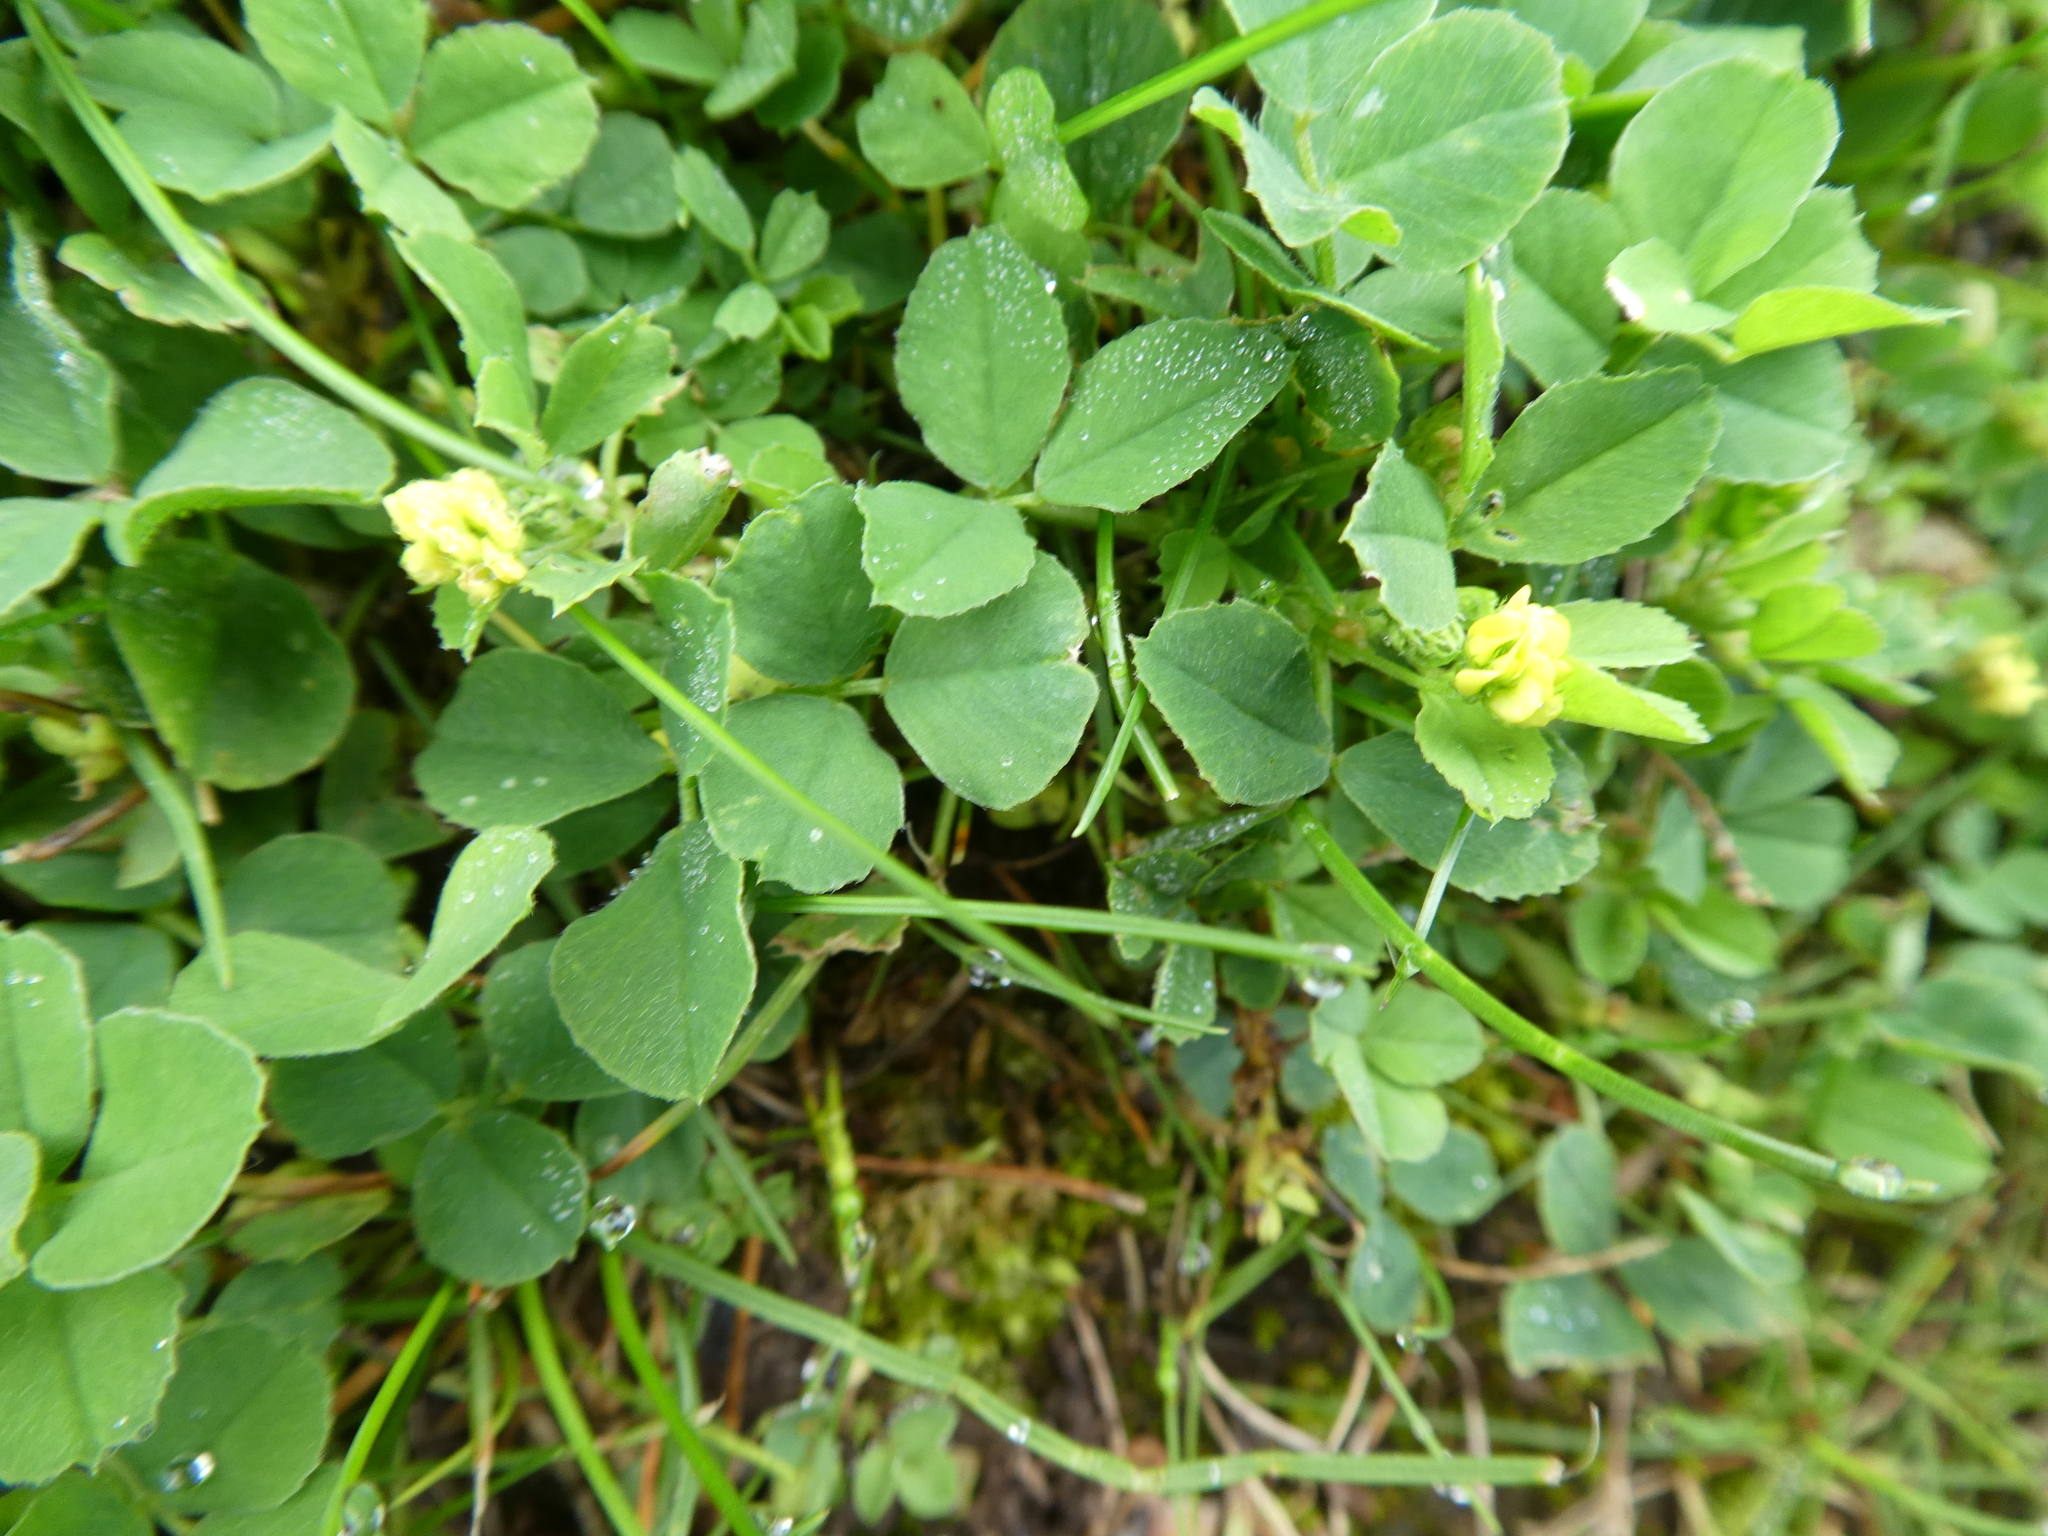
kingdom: Plantae
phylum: Tracheophyta
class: Magnoliopsida
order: Fabales
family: Fabaceae
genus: Medicago
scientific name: Medicago lupulina
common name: Black medick
